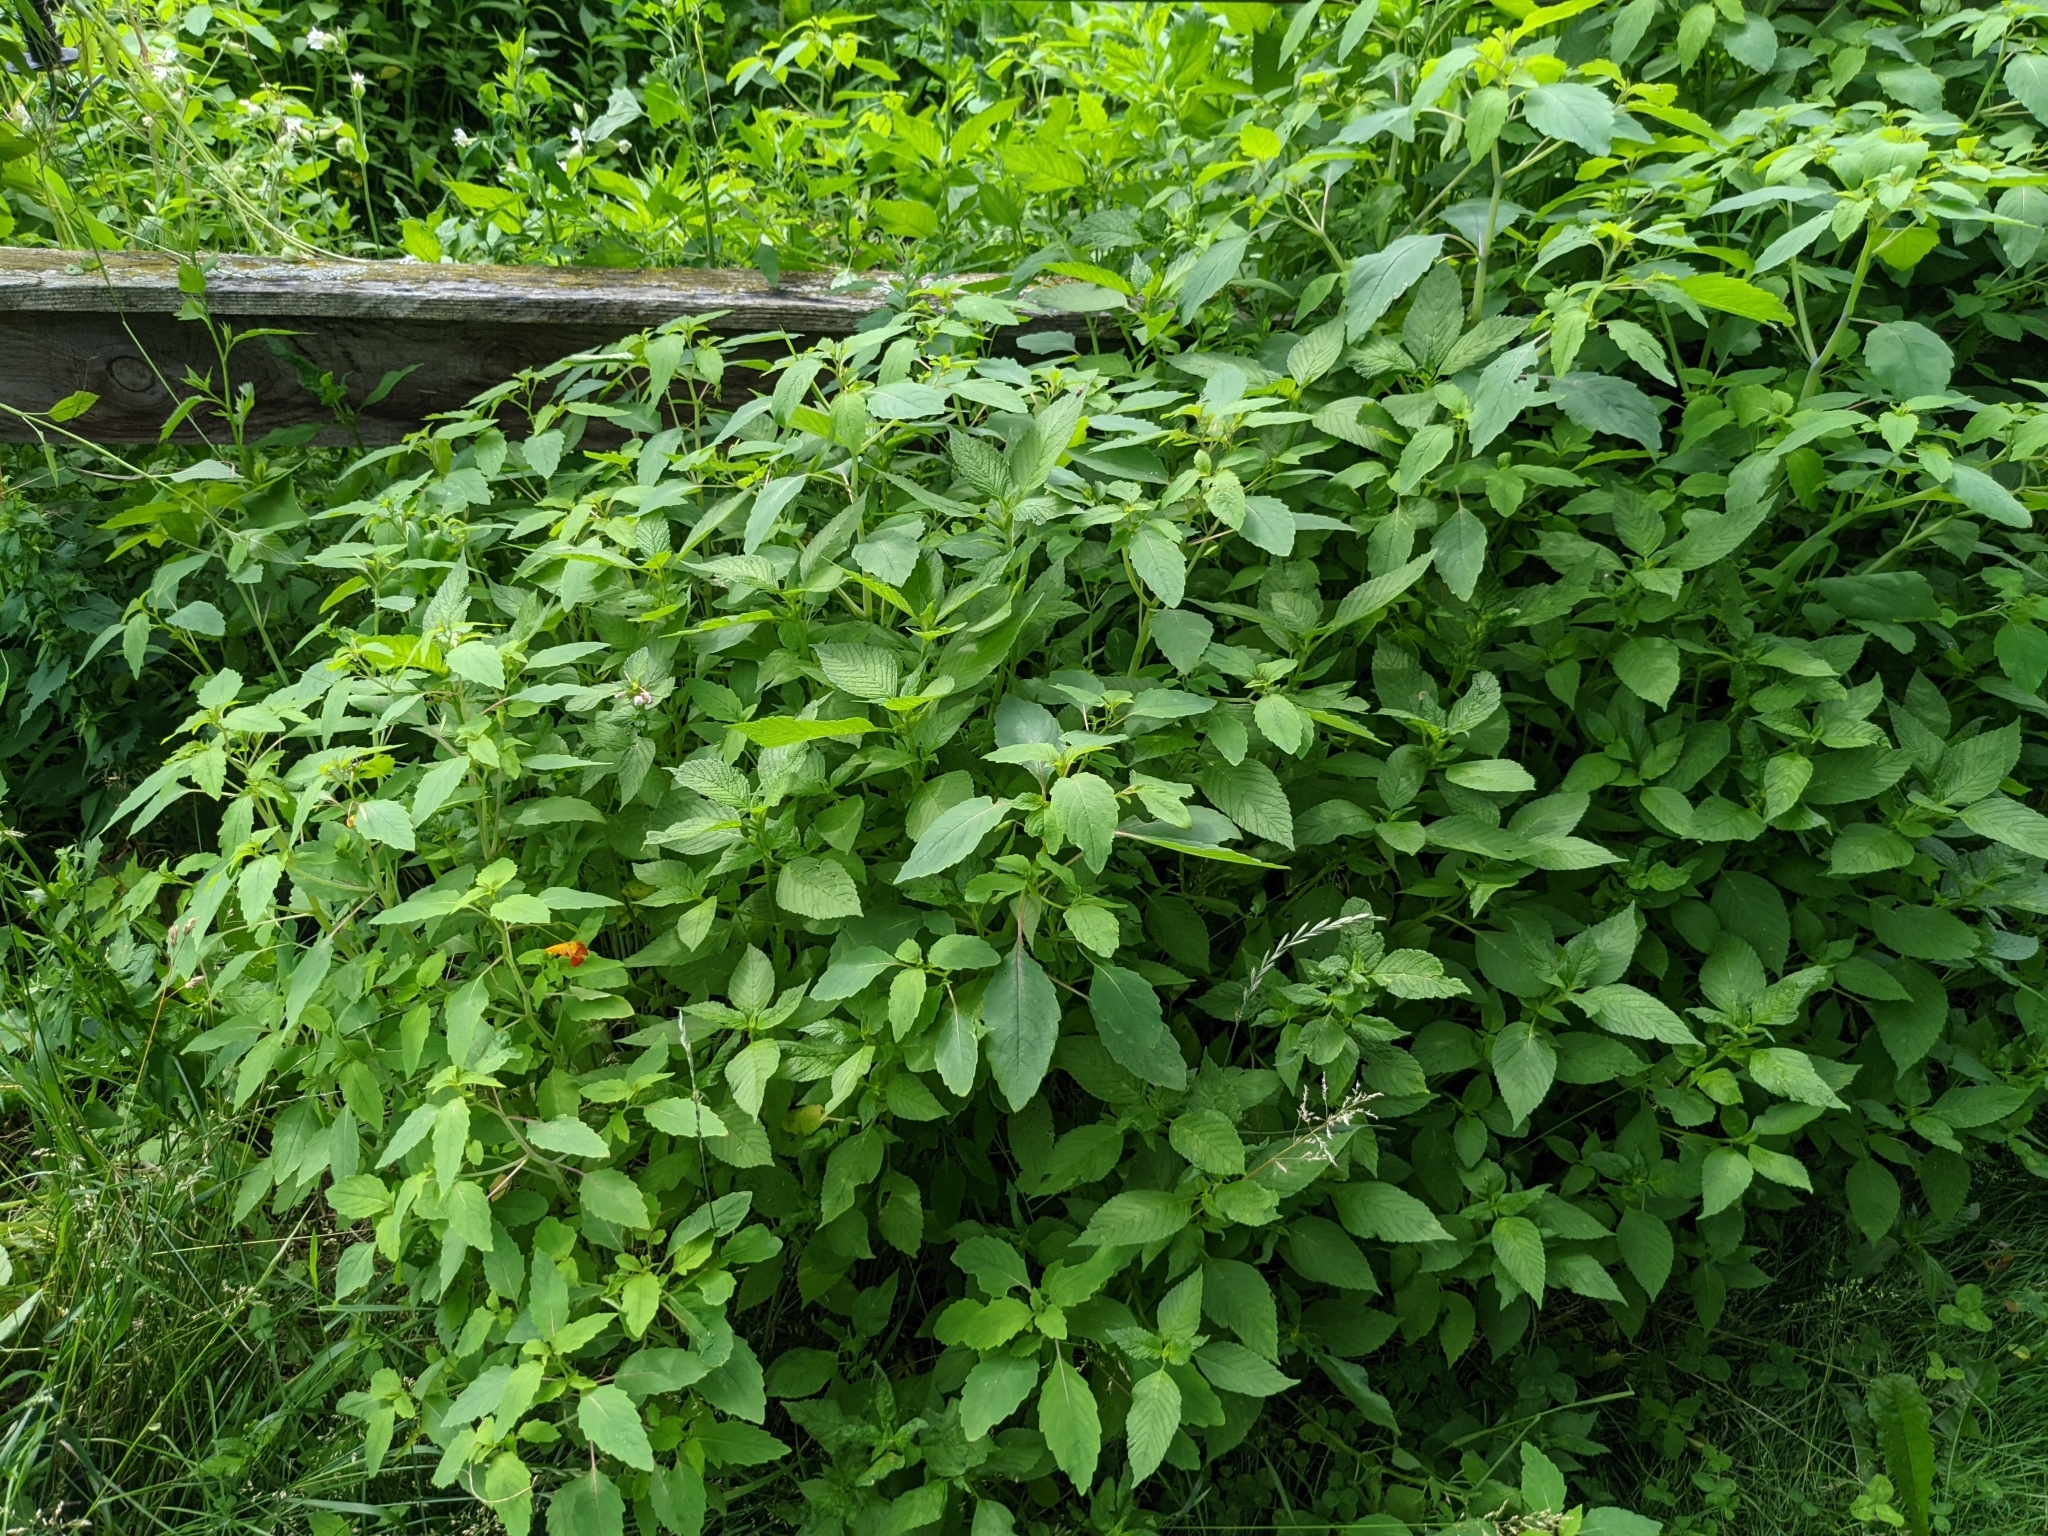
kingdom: Plantae
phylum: Tracheophyta
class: Magnoliopsida
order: Ericales
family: Balsaminaceae
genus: Impatiens
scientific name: Impatiens capensis
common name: Orange balsam
